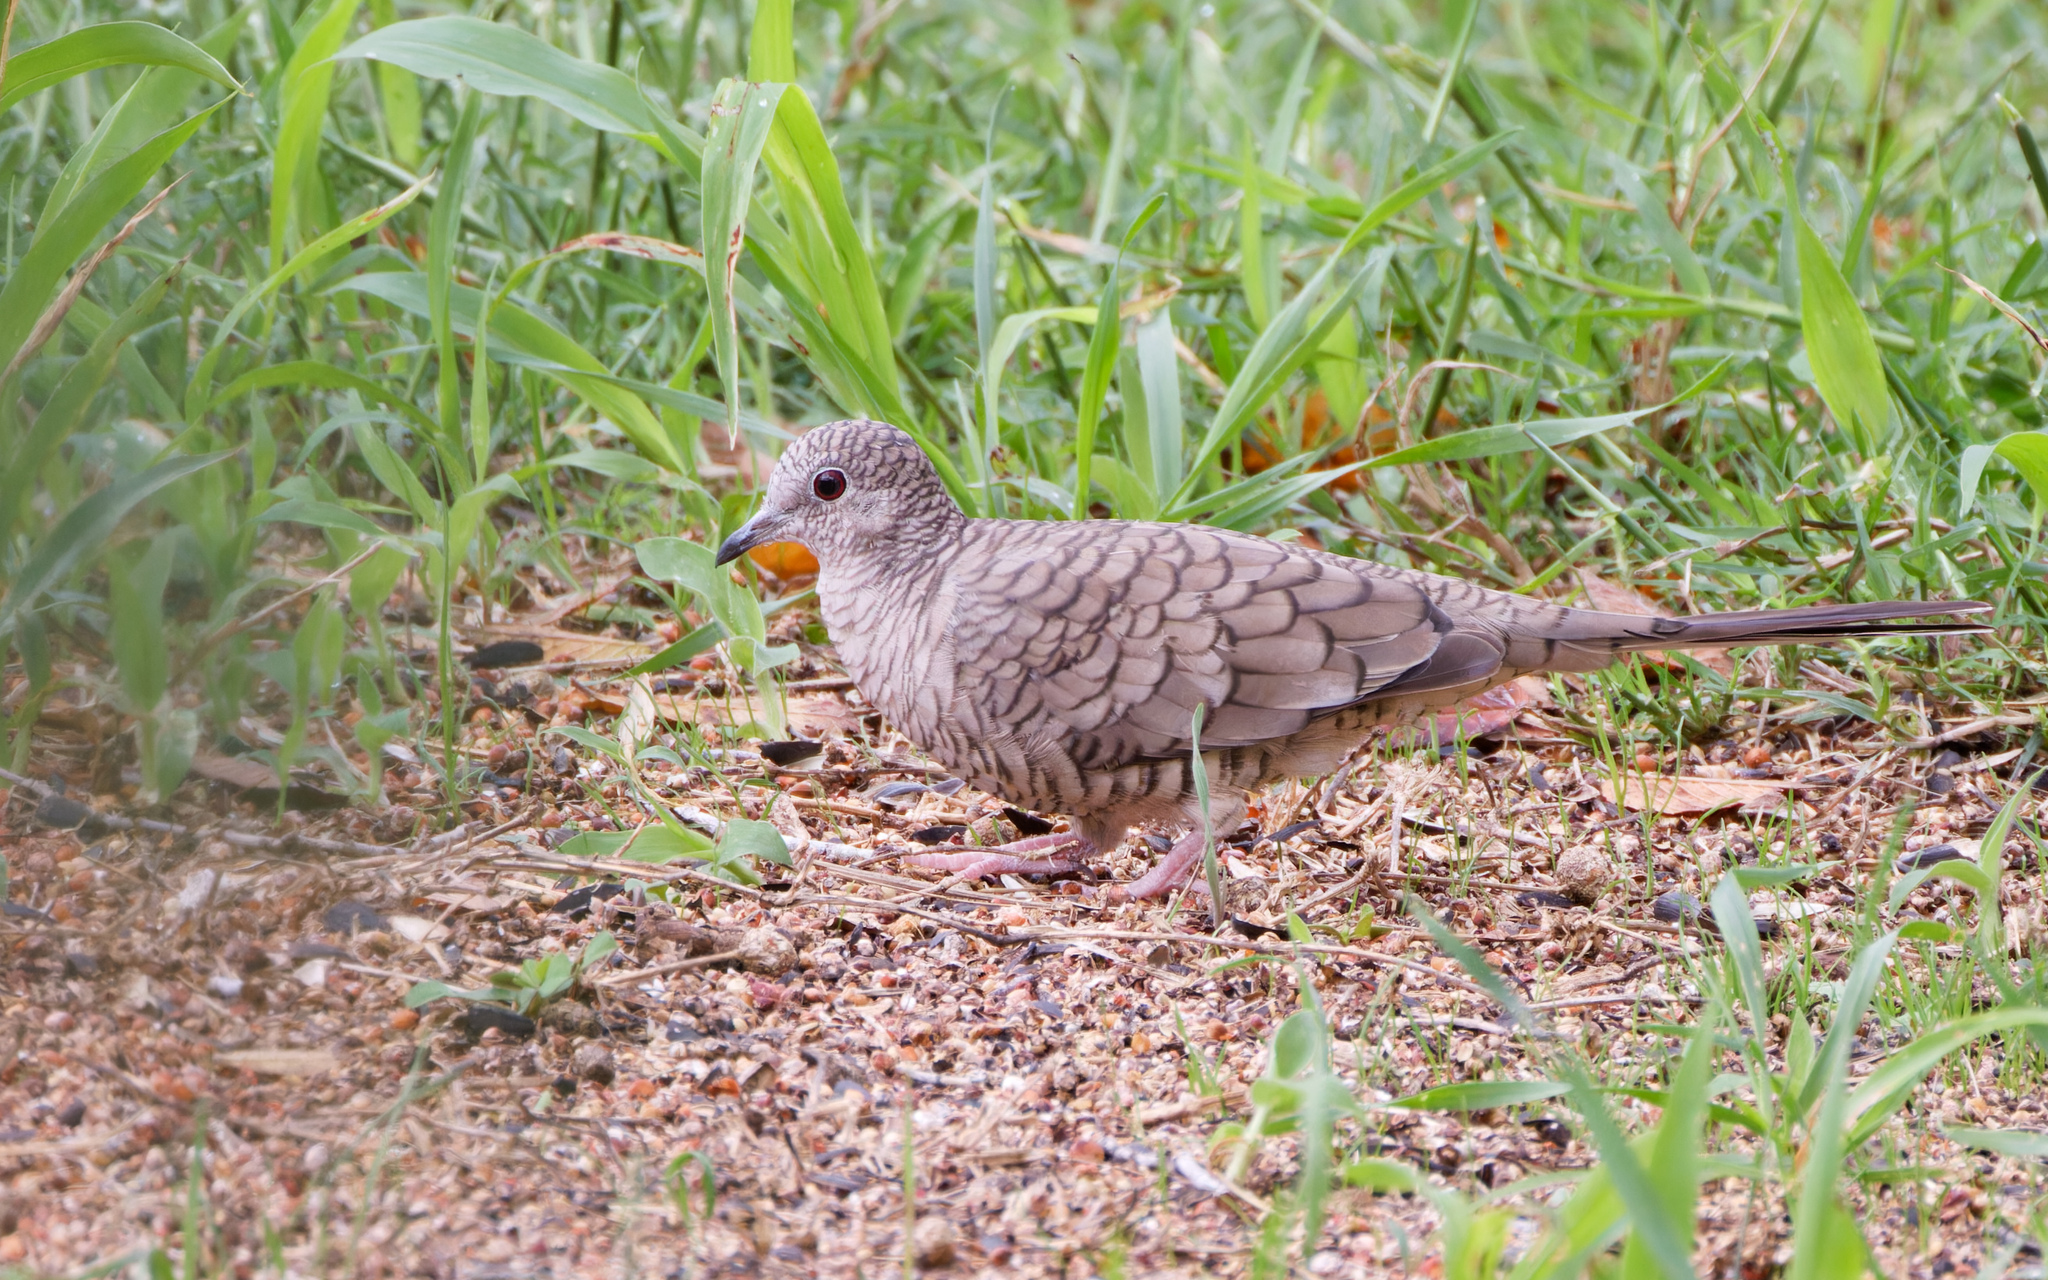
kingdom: Animalia
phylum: Chordata
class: Aves
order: Columbiformes
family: Columbidae
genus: Columbina
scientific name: Columbina inca
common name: Inca dove
